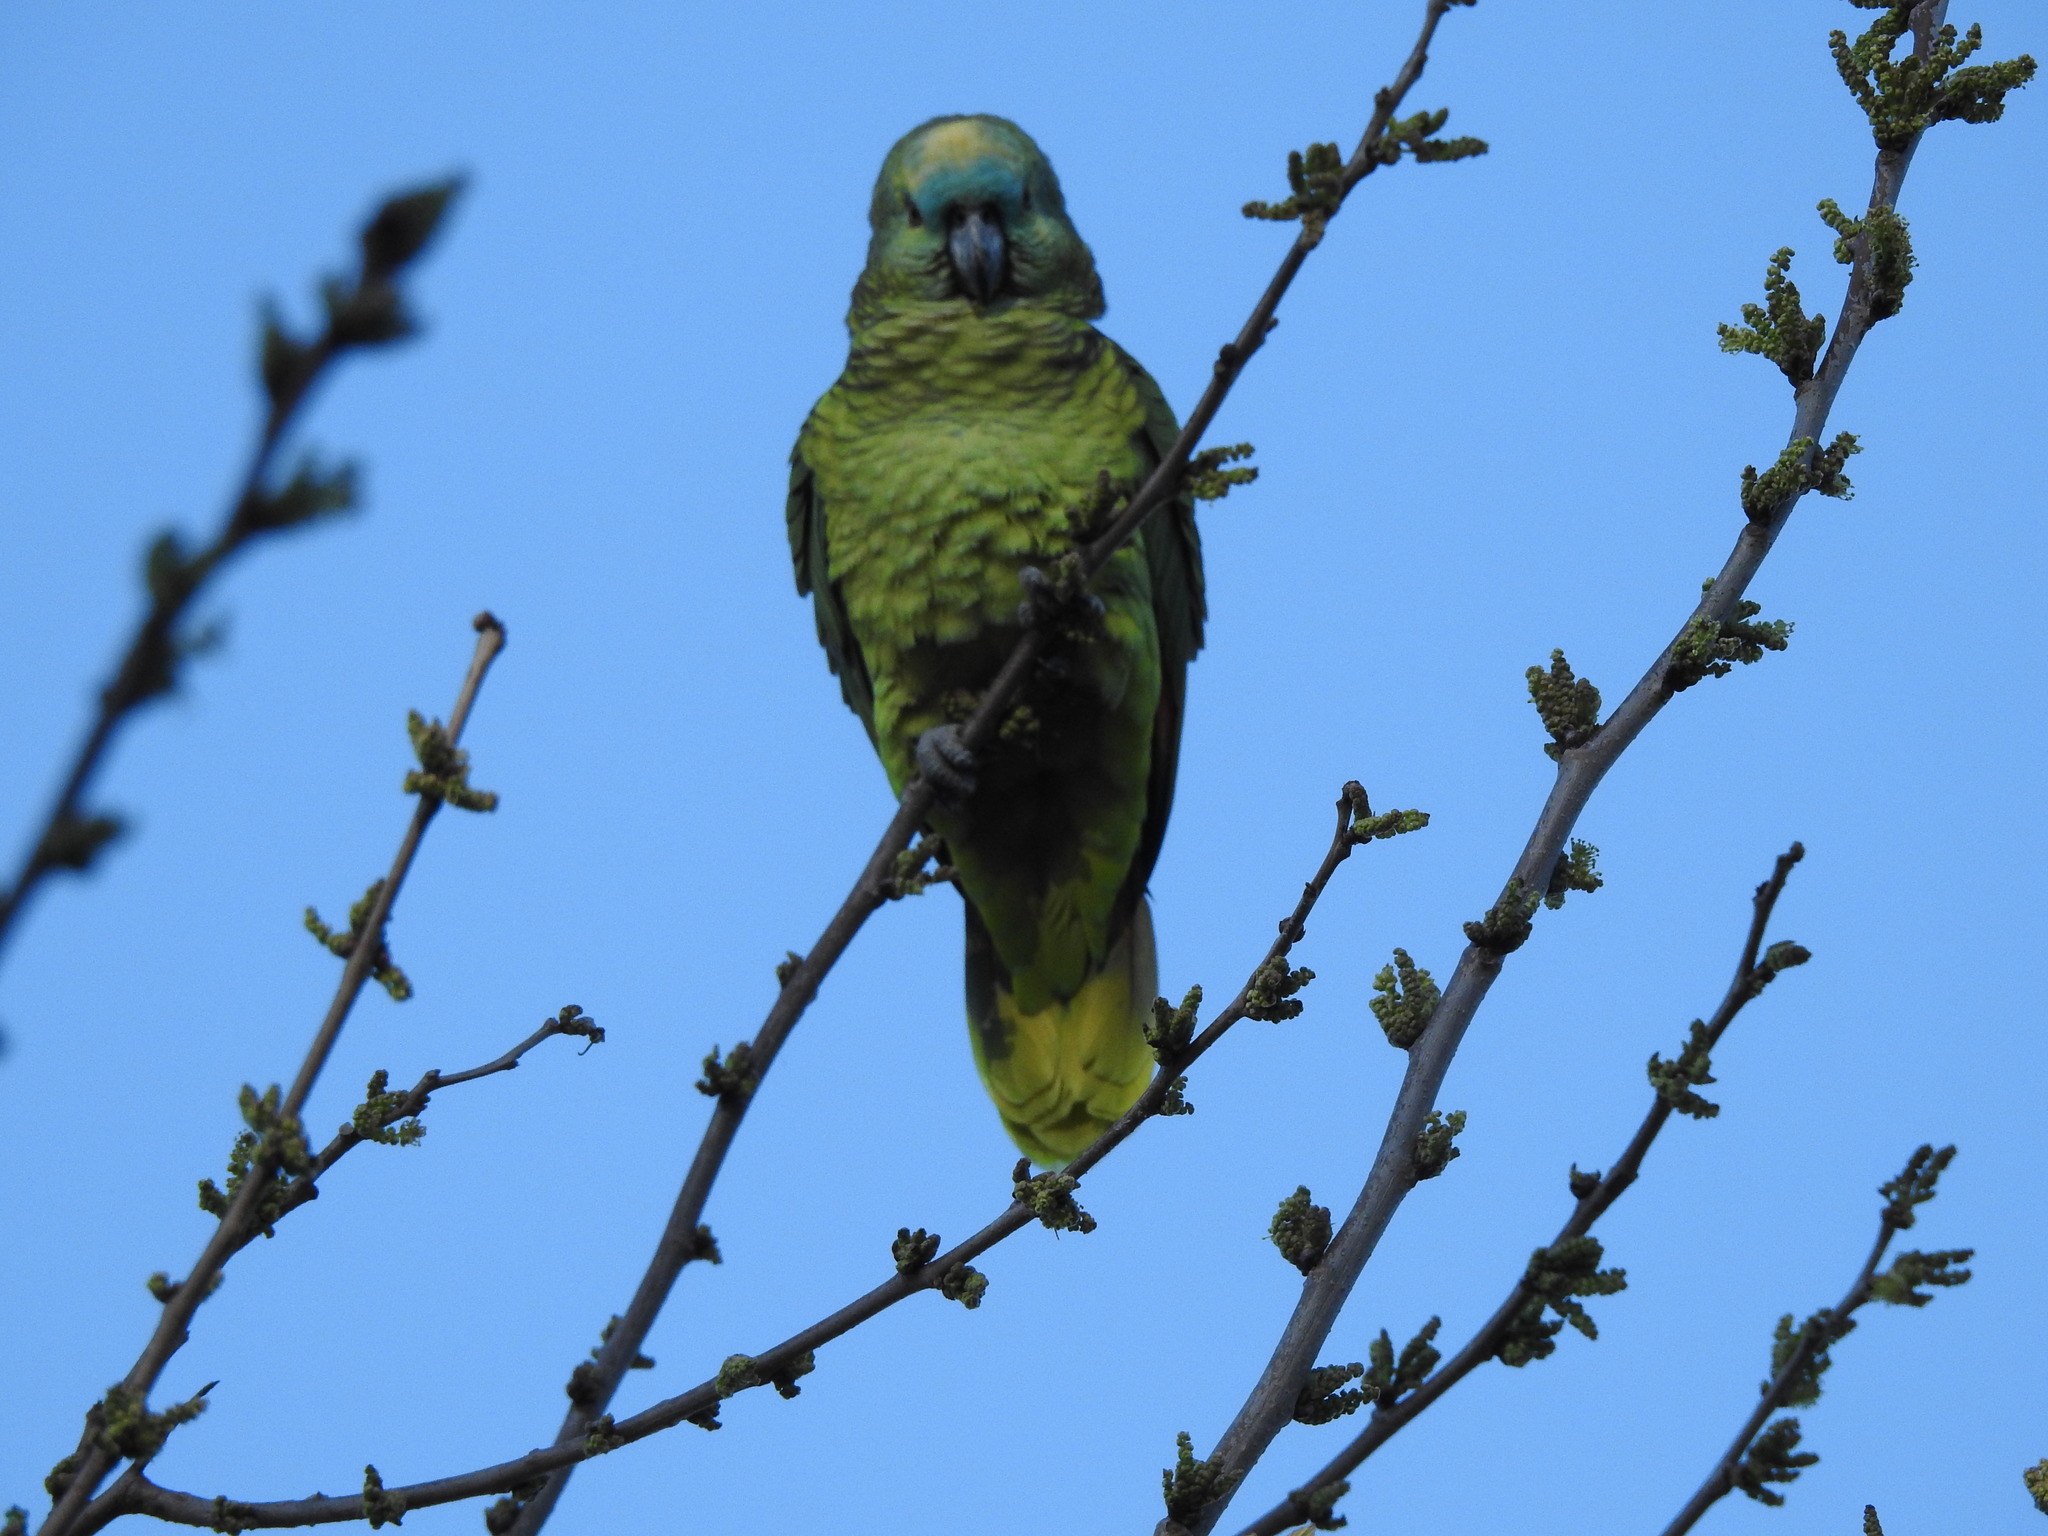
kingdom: Animalia
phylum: Chordata
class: Aves
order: Psittaciformes
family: Psittacidae
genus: Amazona
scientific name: Amazona aestiva
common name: Turquoise-fronted amazon
